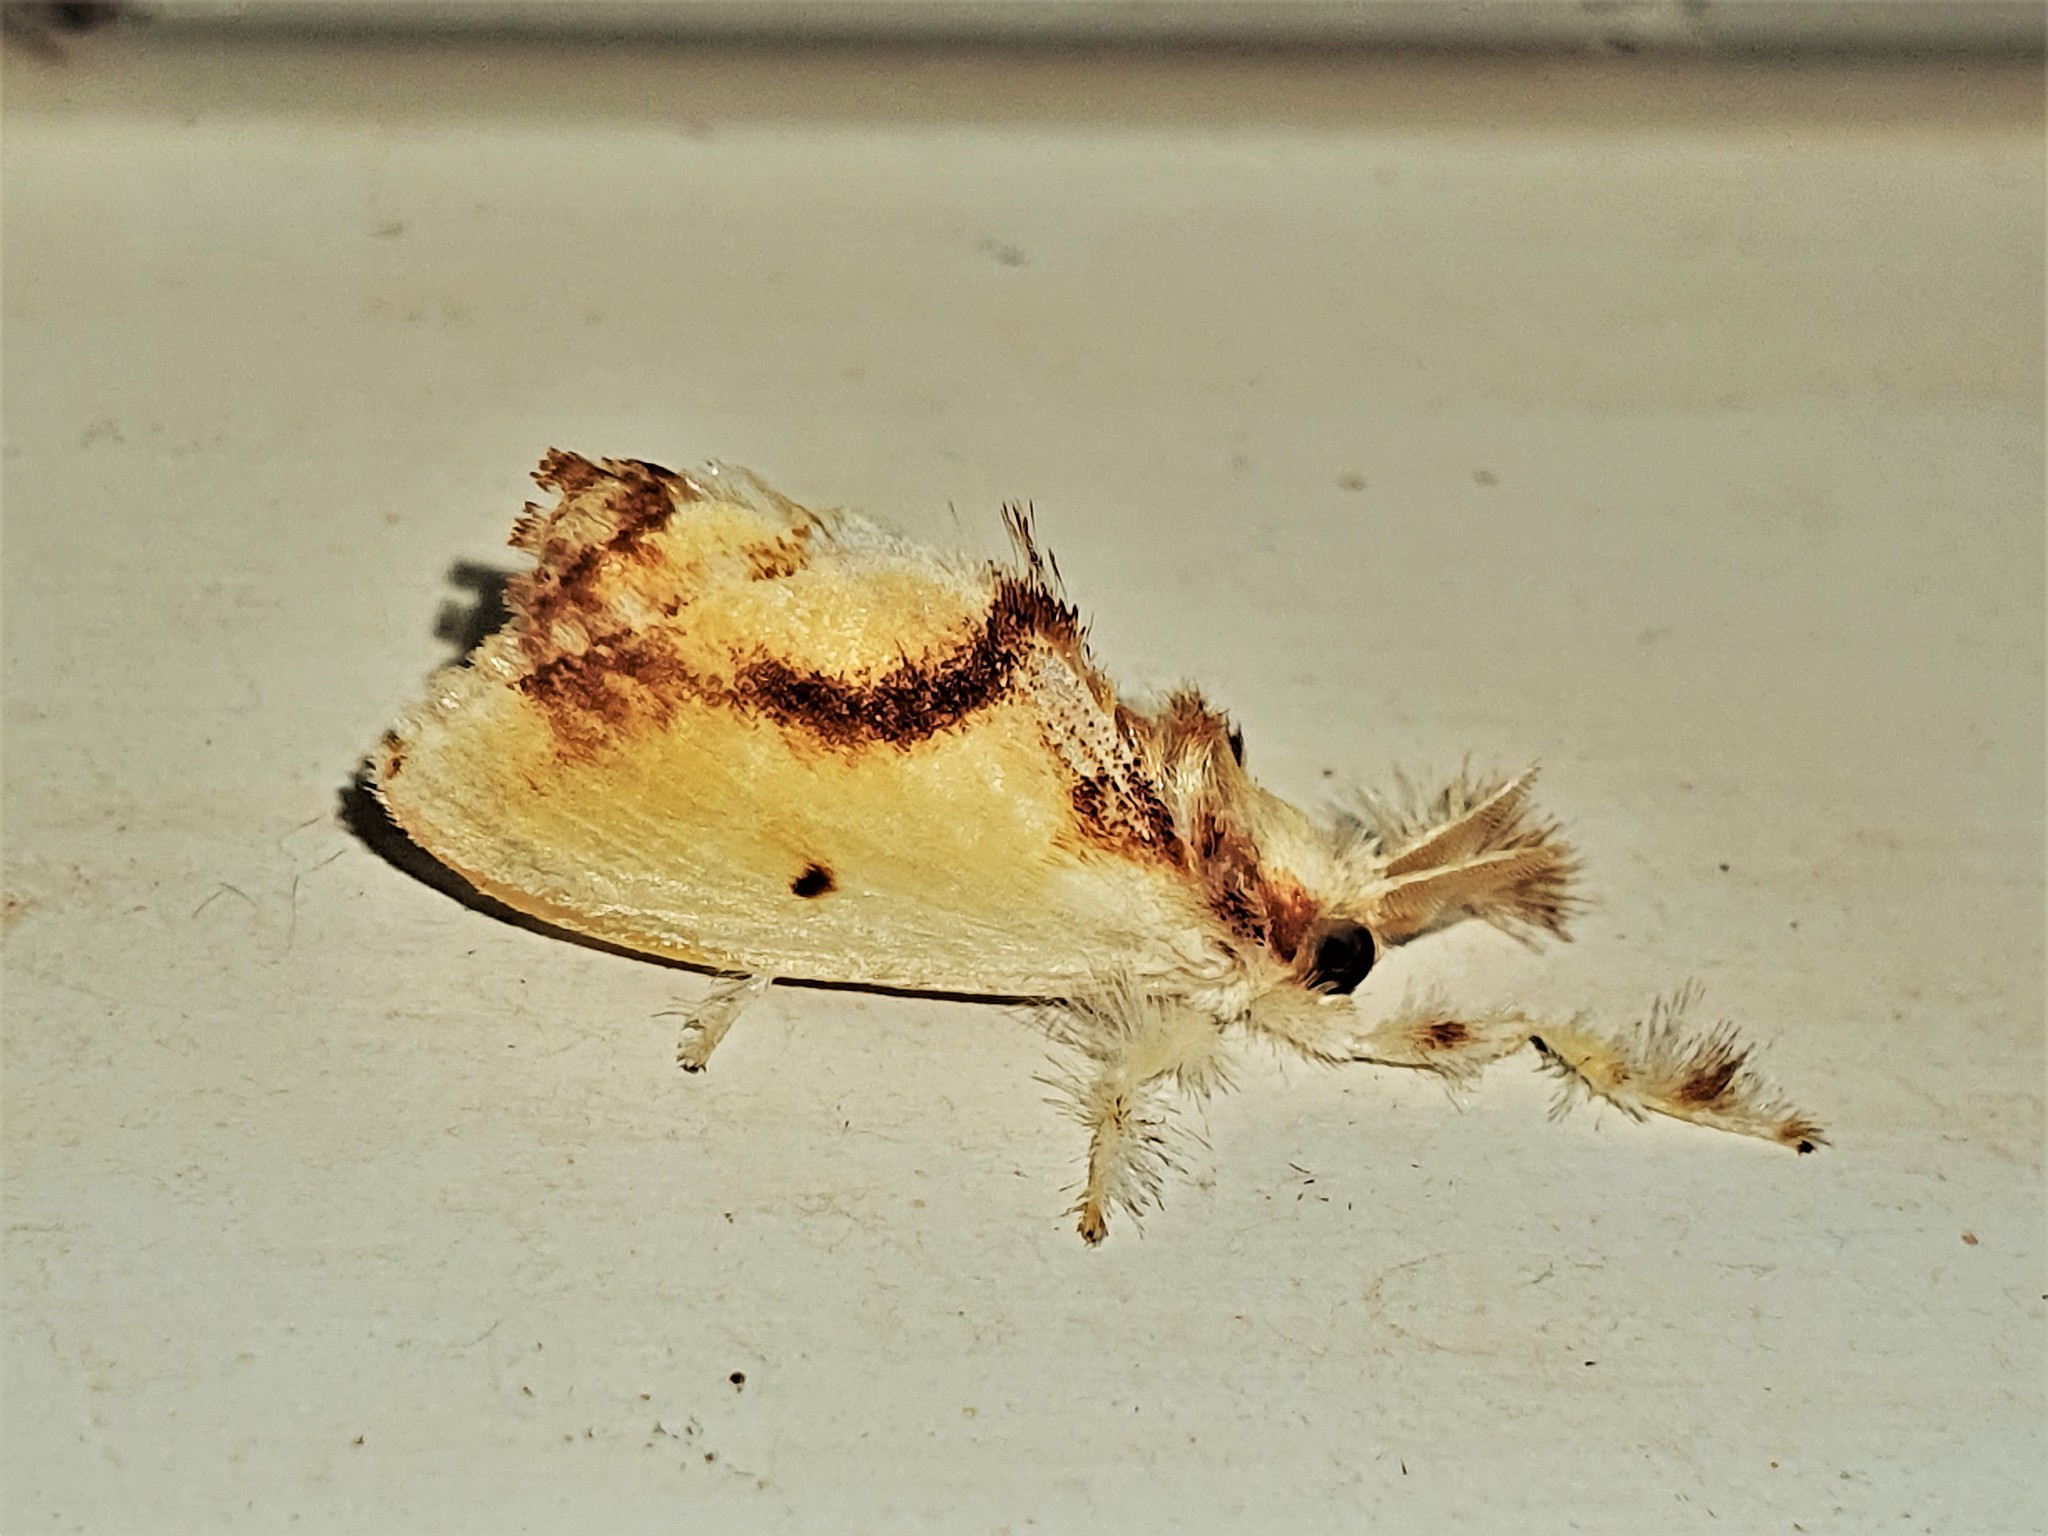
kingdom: Animalia
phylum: Arthropoda
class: Insecta
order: Lepidoptera
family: Dalceridae
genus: Acraga
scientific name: Acraga leberna
